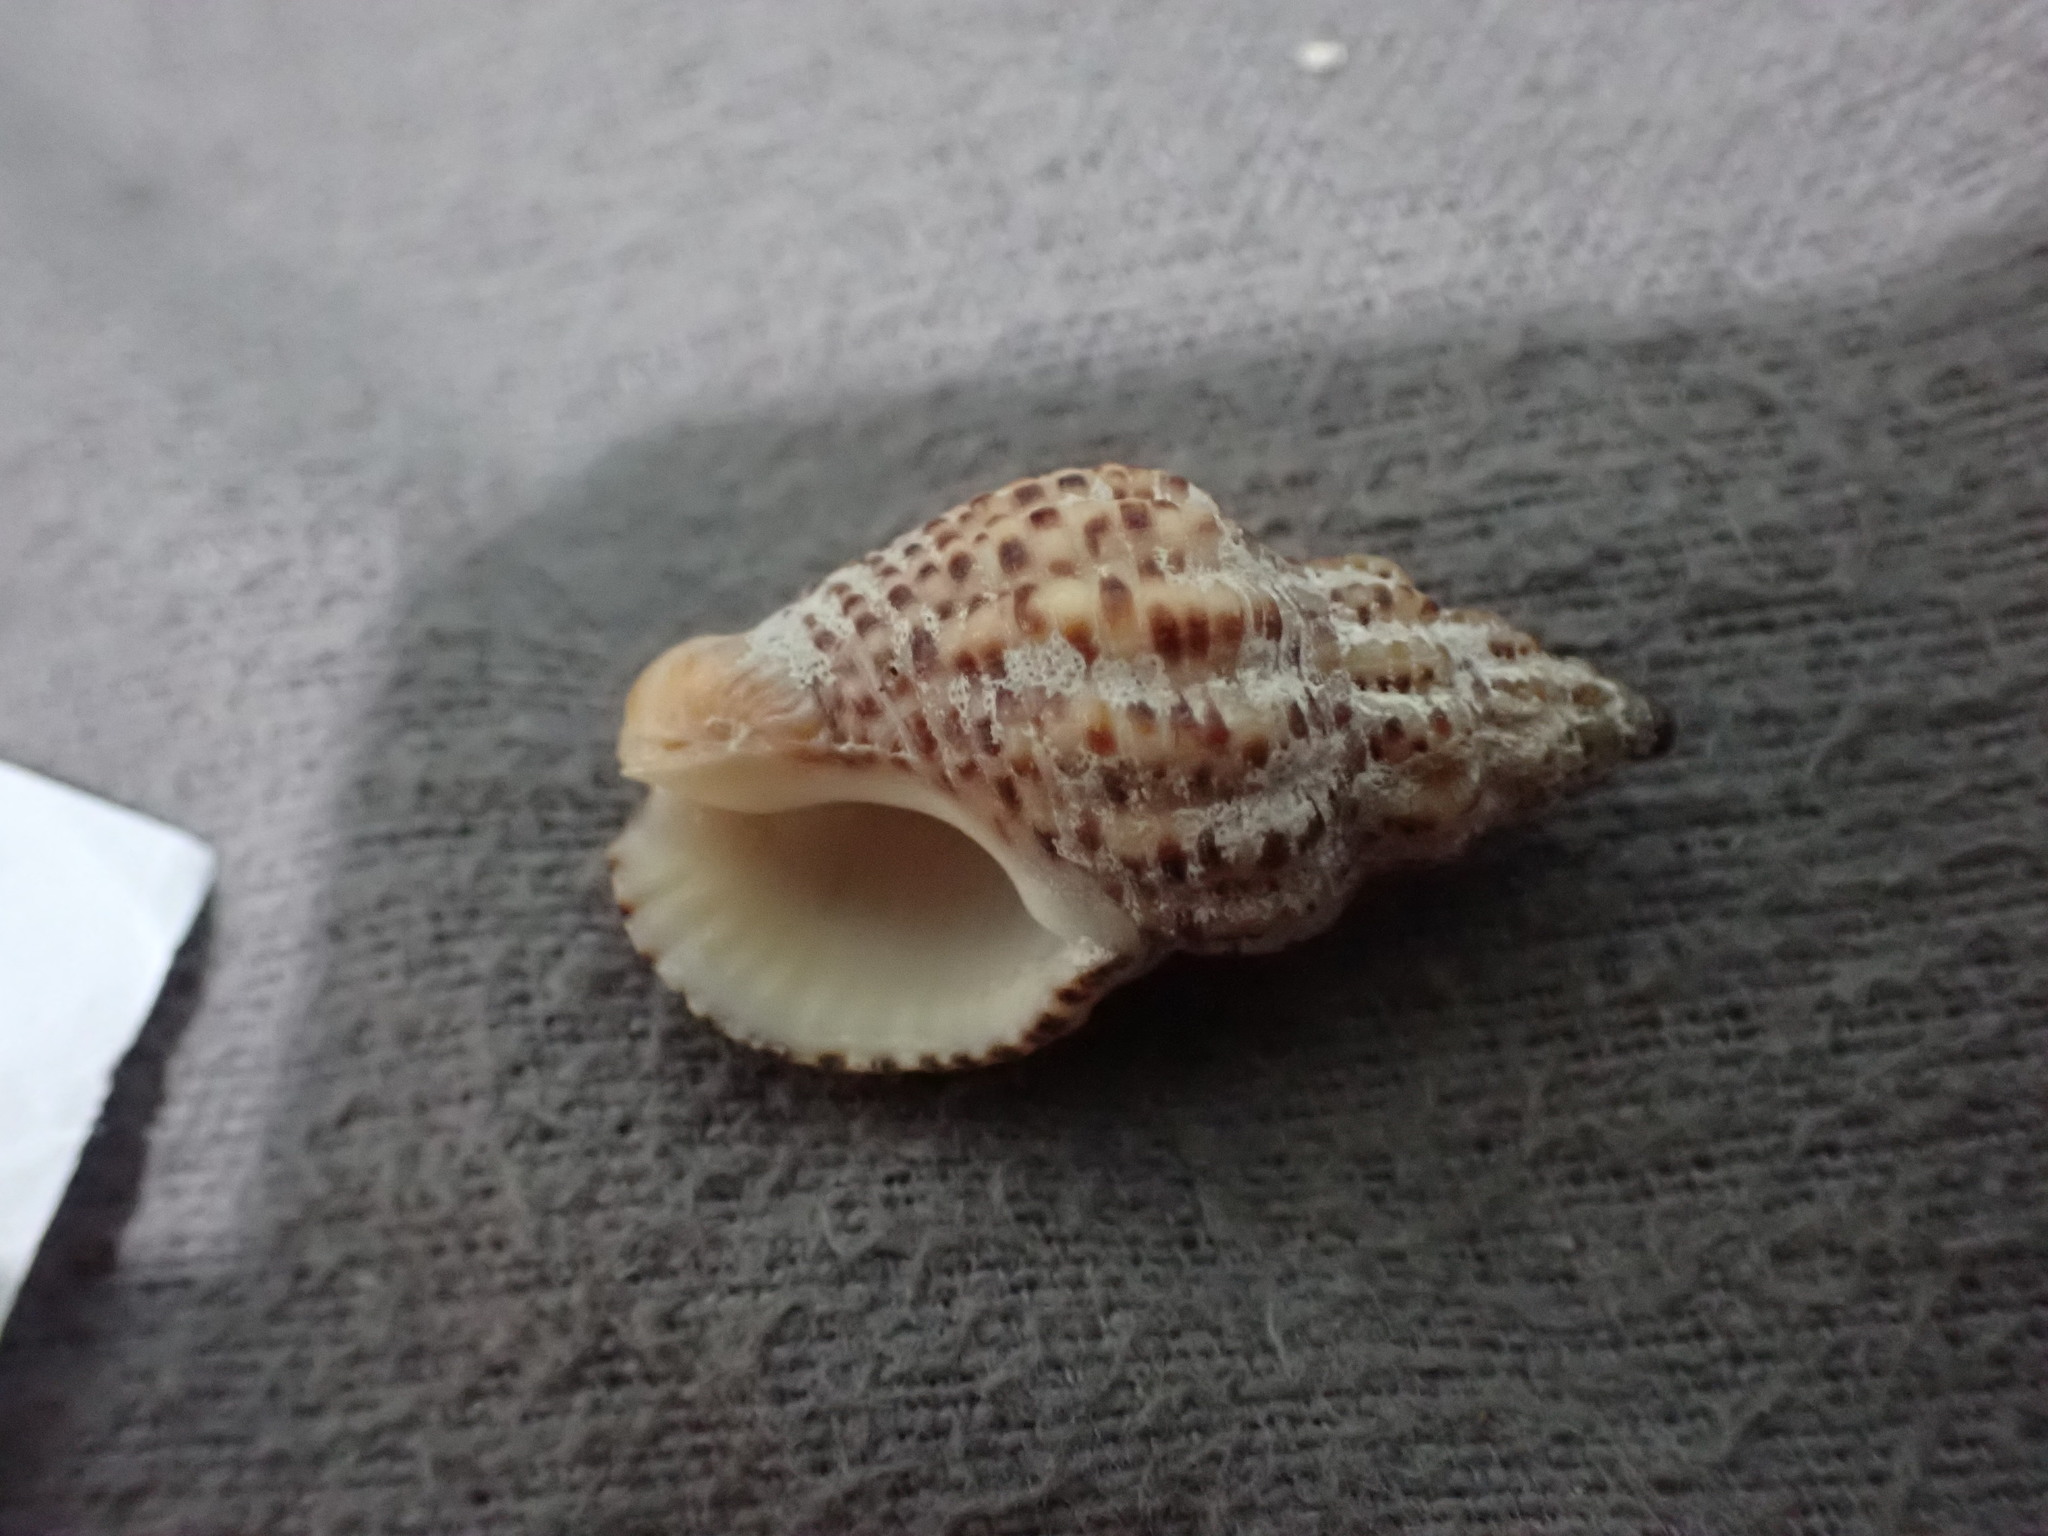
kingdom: Animalia
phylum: Mollusca
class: Gastropoda
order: Neogastropoda
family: Cominellidae
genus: Cominella
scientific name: Cominella tolagaensis
